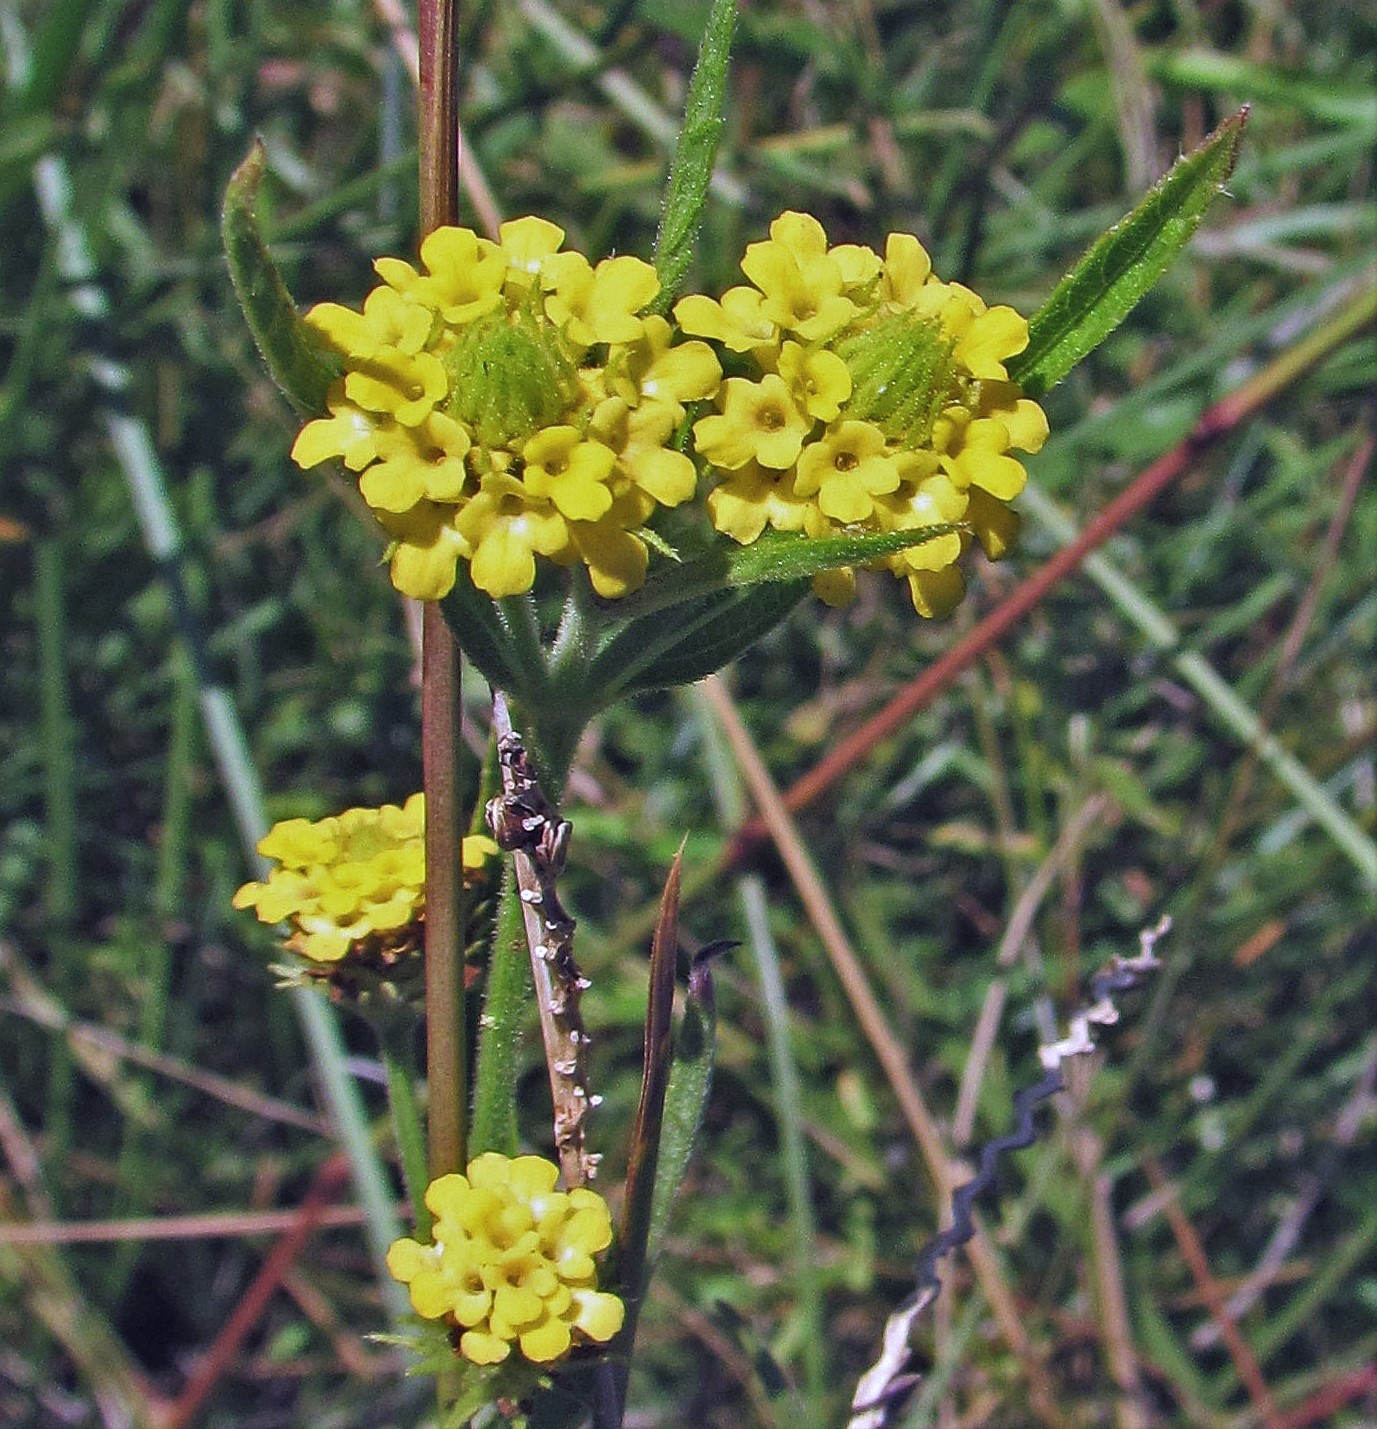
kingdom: Plantae
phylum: Tracheophyta
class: Magnoliopsida
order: Lamiales
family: Verbenaceae
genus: Lippia
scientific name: Lippia asperrima
